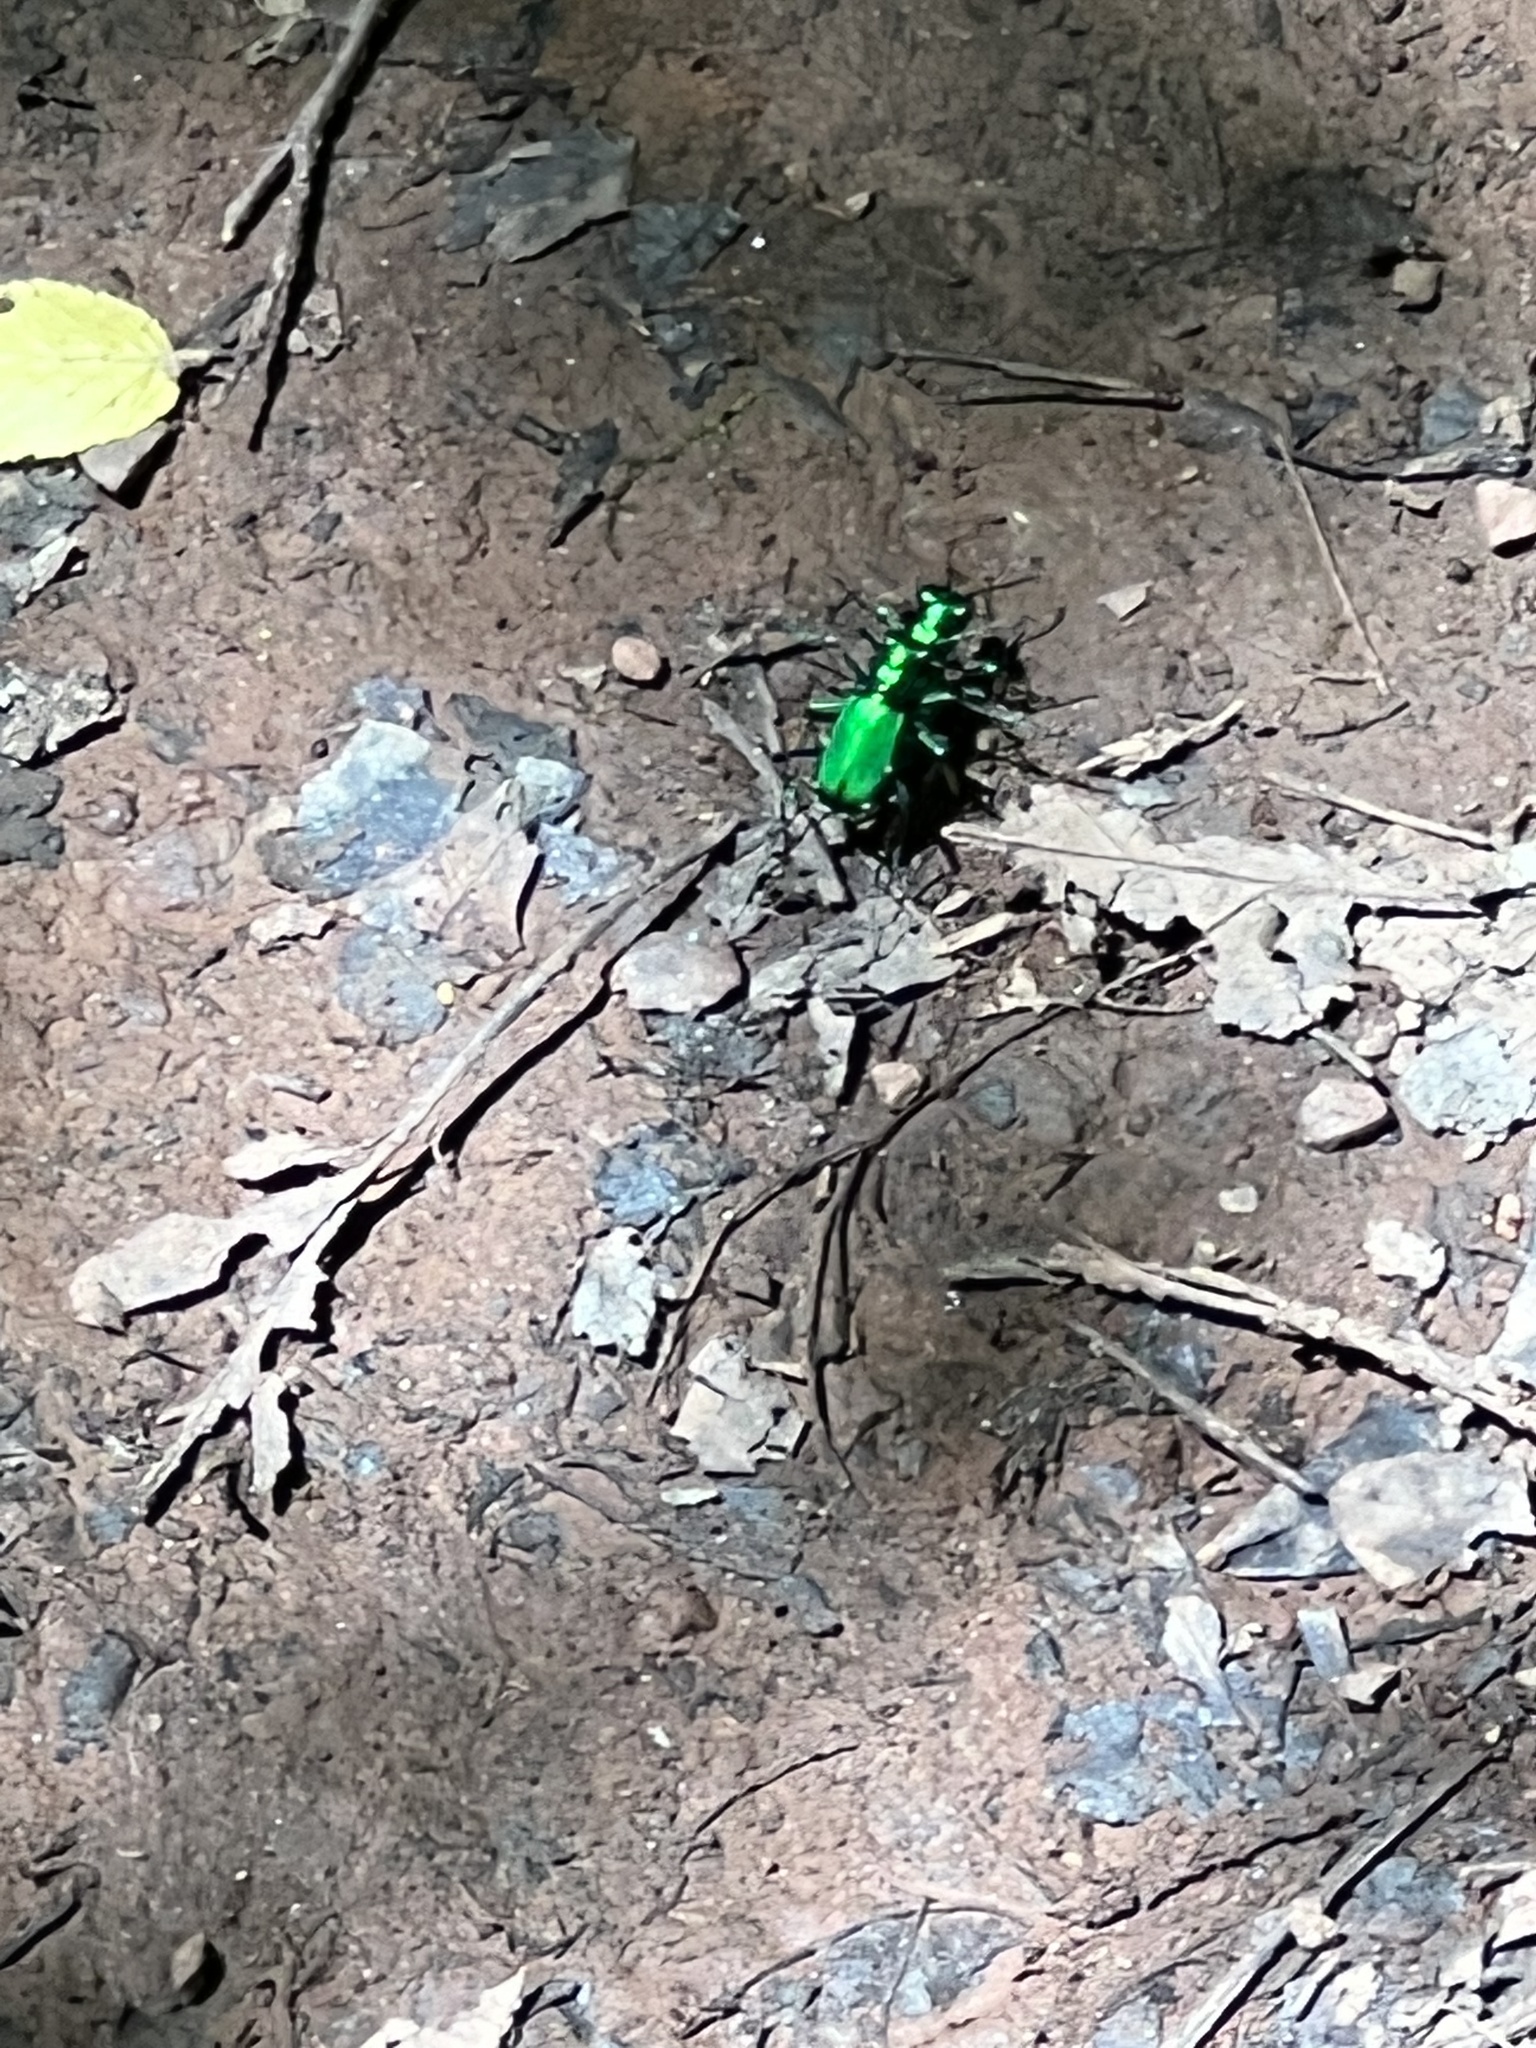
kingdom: Animalia
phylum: Arthropoda
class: Insecta
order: Coleoptera
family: Carabidae
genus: Cicindela
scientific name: Cicindela sexguttata
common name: Six-spotted tiger beetle
